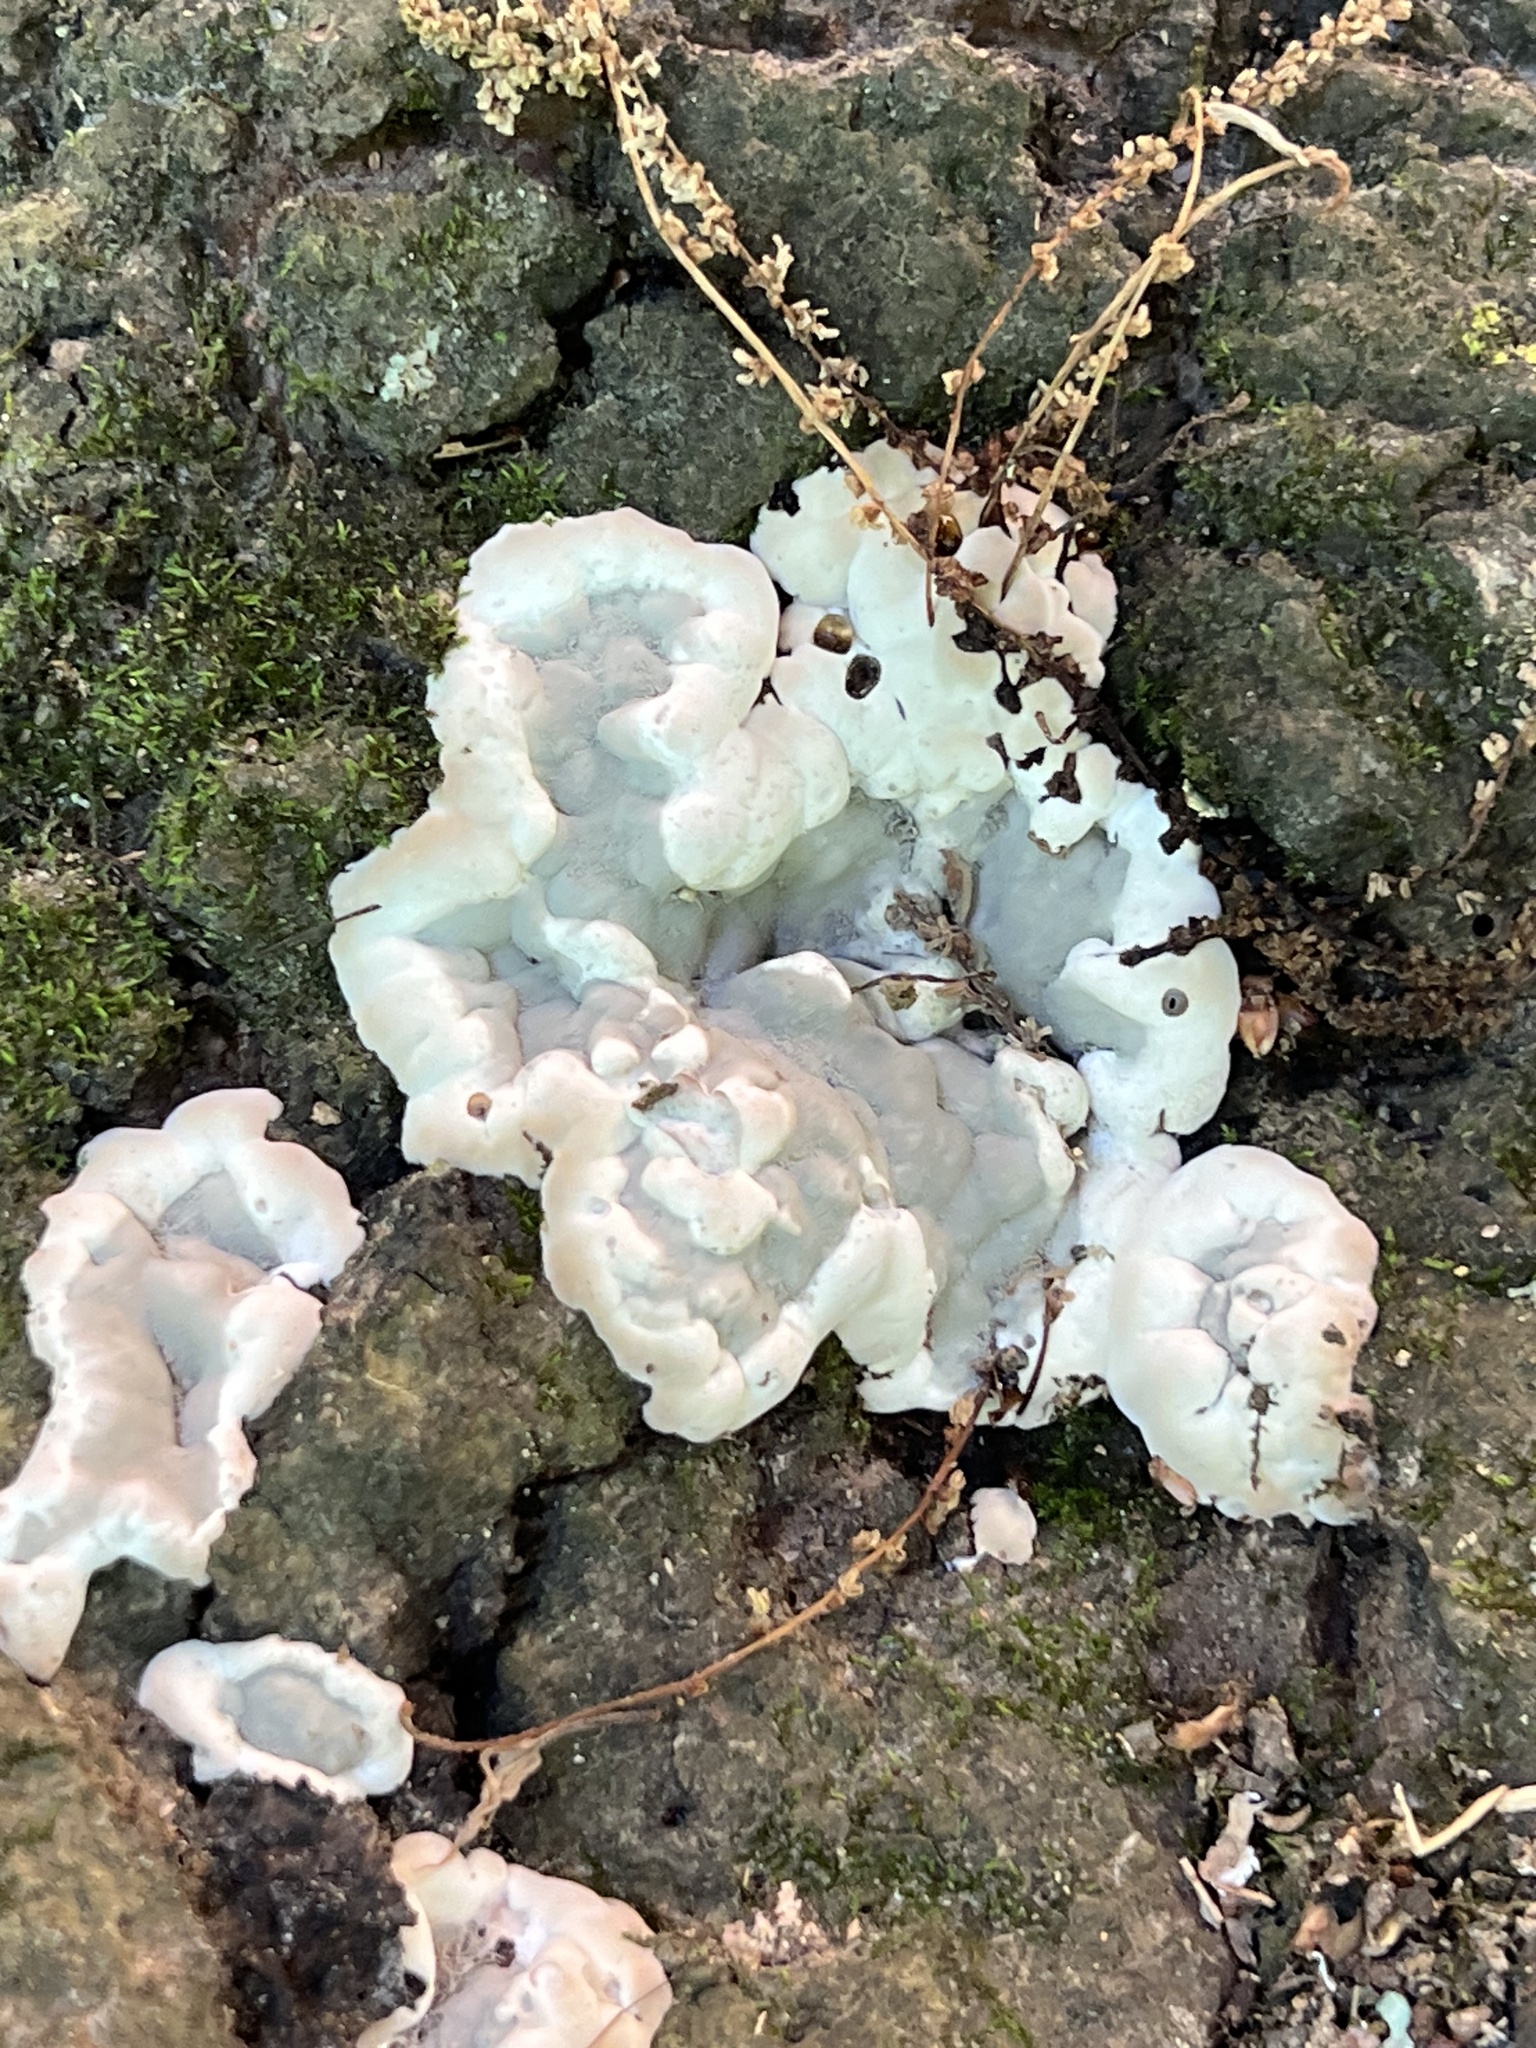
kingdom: Fungi
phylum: Ascomycota
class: Sordariomycetes
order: Xylariales
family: Xylariaceae
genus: Kretzschmaria
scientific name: Kretzschmaria deusta
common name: Brittle cinder
